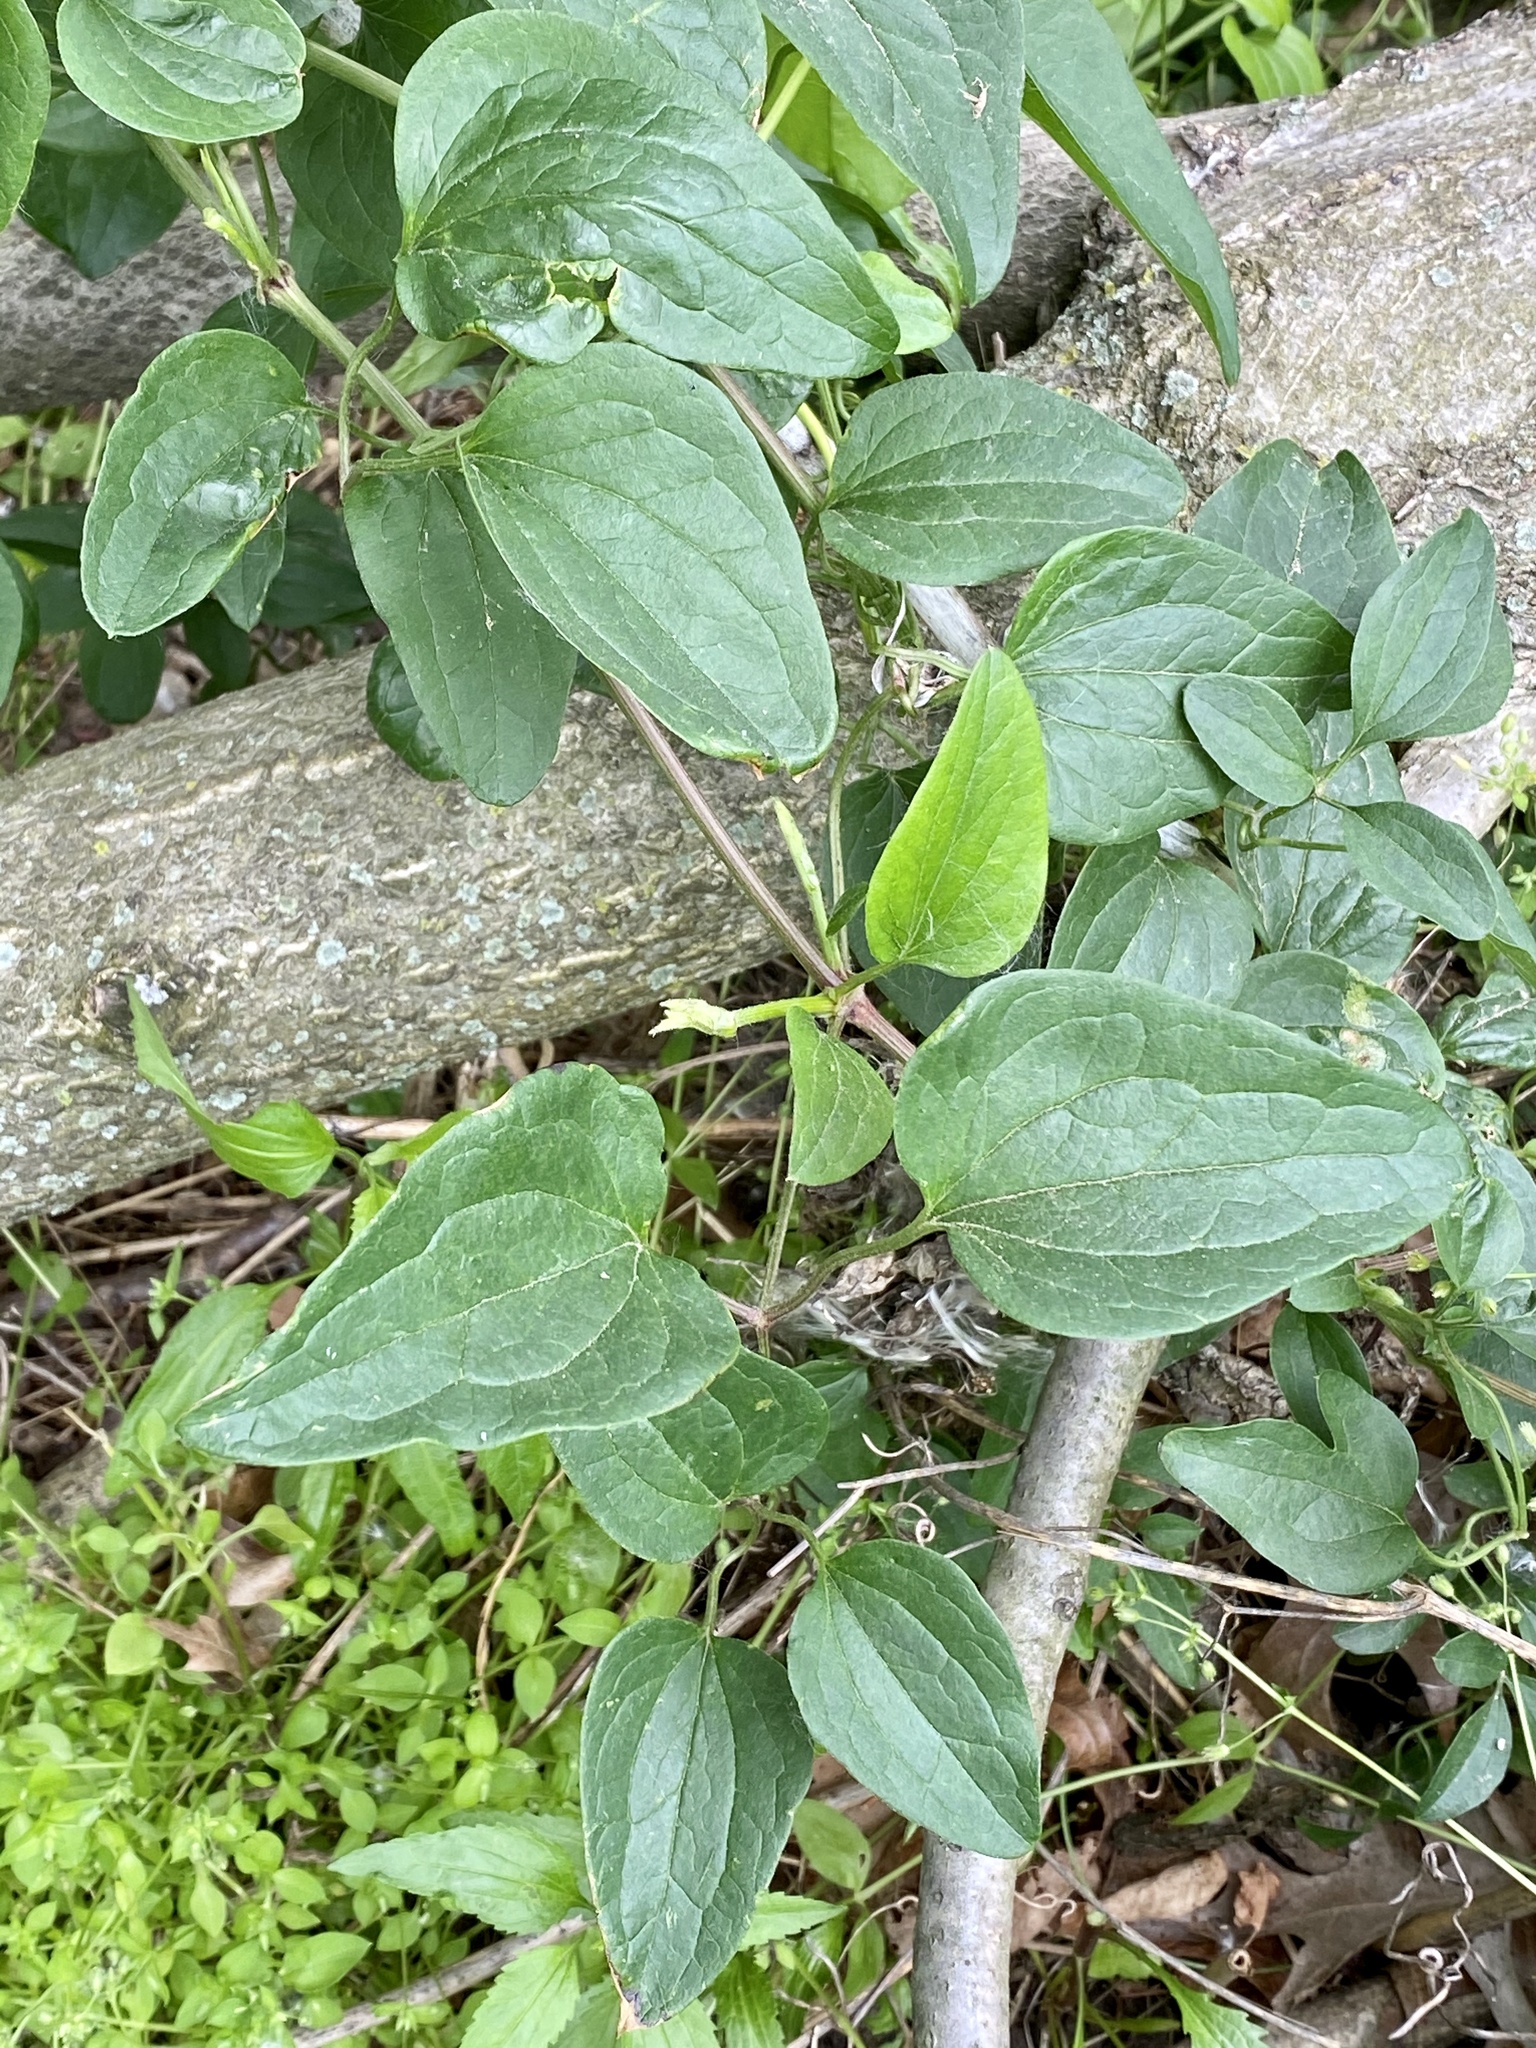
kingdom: Plantae
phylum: Tracheophyta
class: Magnoliopsida
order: Ranunculales
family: Ranunculaceae
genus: Clematis
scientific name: Clematis terniflora
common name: Sweet autumn clematis
